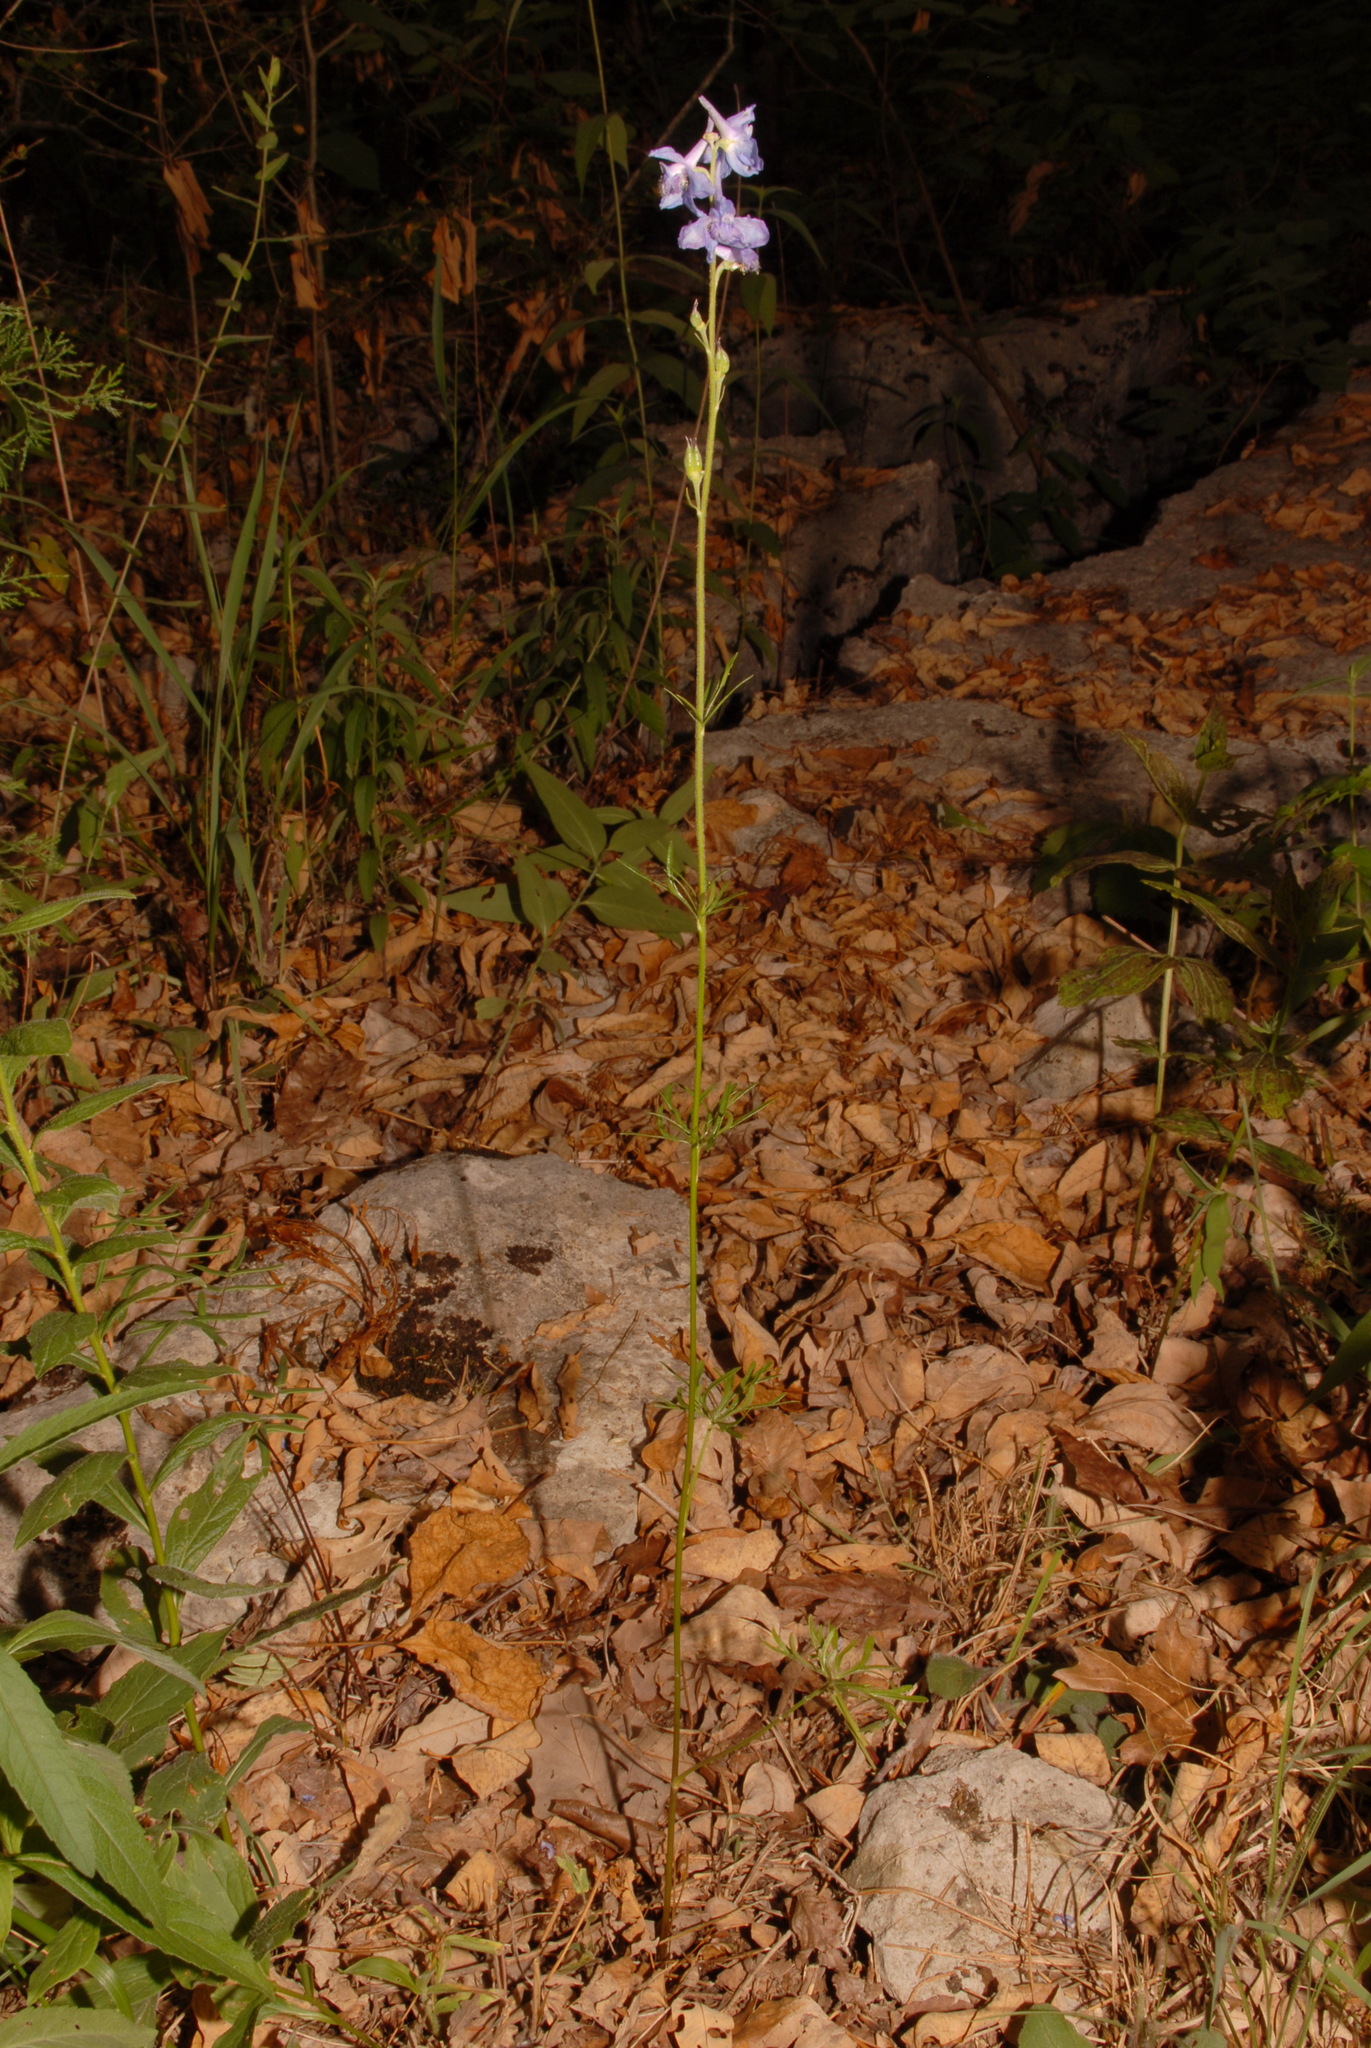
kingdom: Plantae
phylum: Tracheophyta
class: Magnoliopsida
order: Ranunculales
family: Ranunculaceae
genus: Delphinium
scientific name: Delphinium carolinianum
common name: Carolina larkspur
